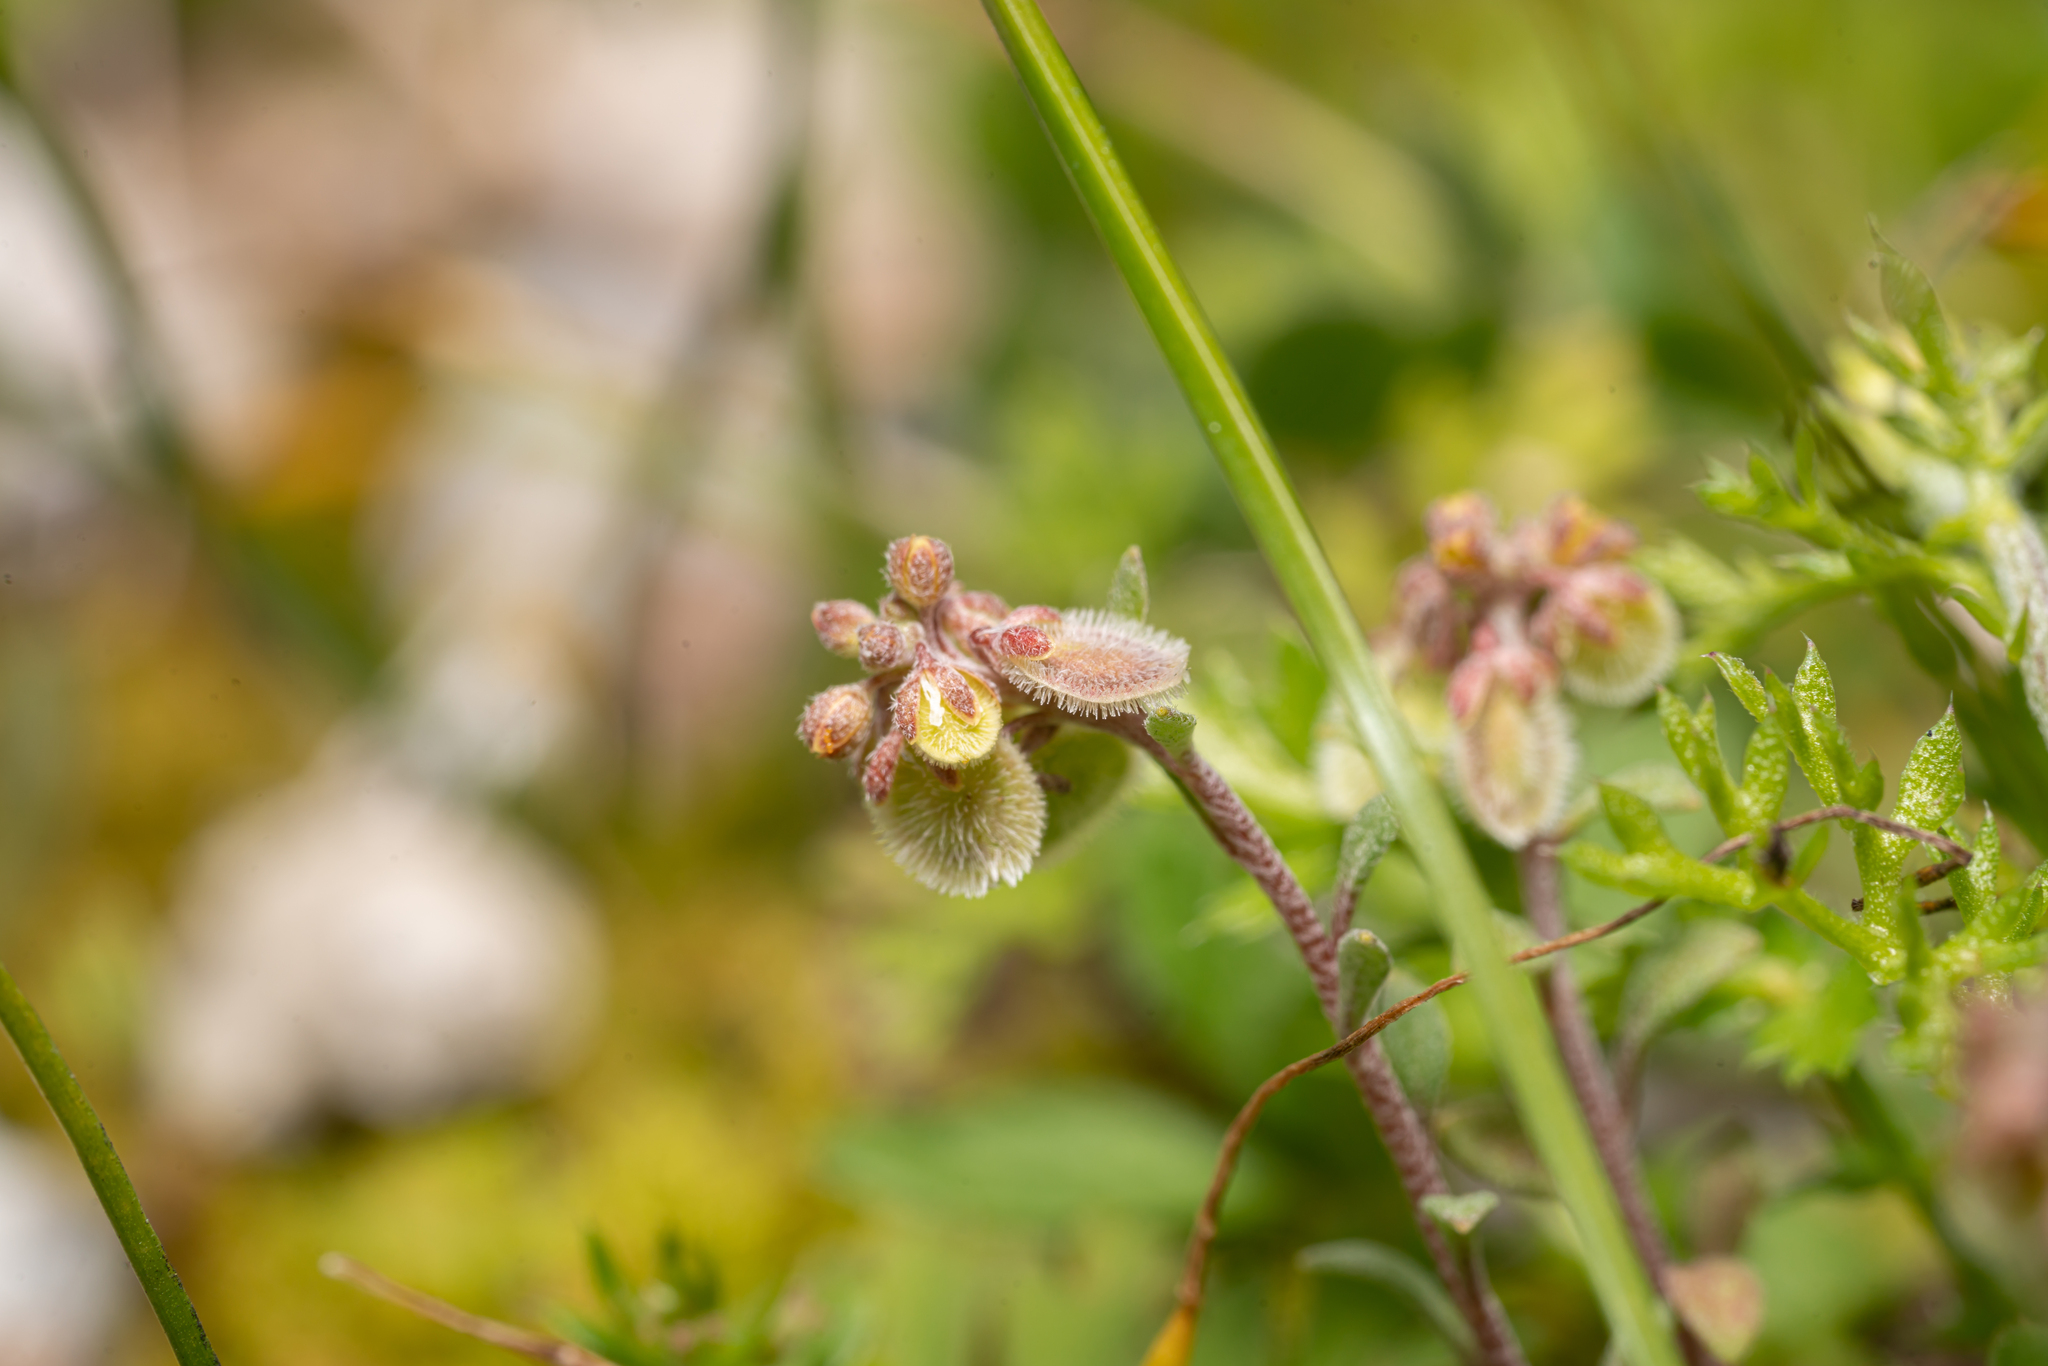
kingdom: Plantae
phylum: Tracheophyta
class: Magnoliopsida
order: Brassicales
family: Brassicaceae
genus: Clypeola
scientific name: Clypeola jonthlaspi
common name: Disk cress
